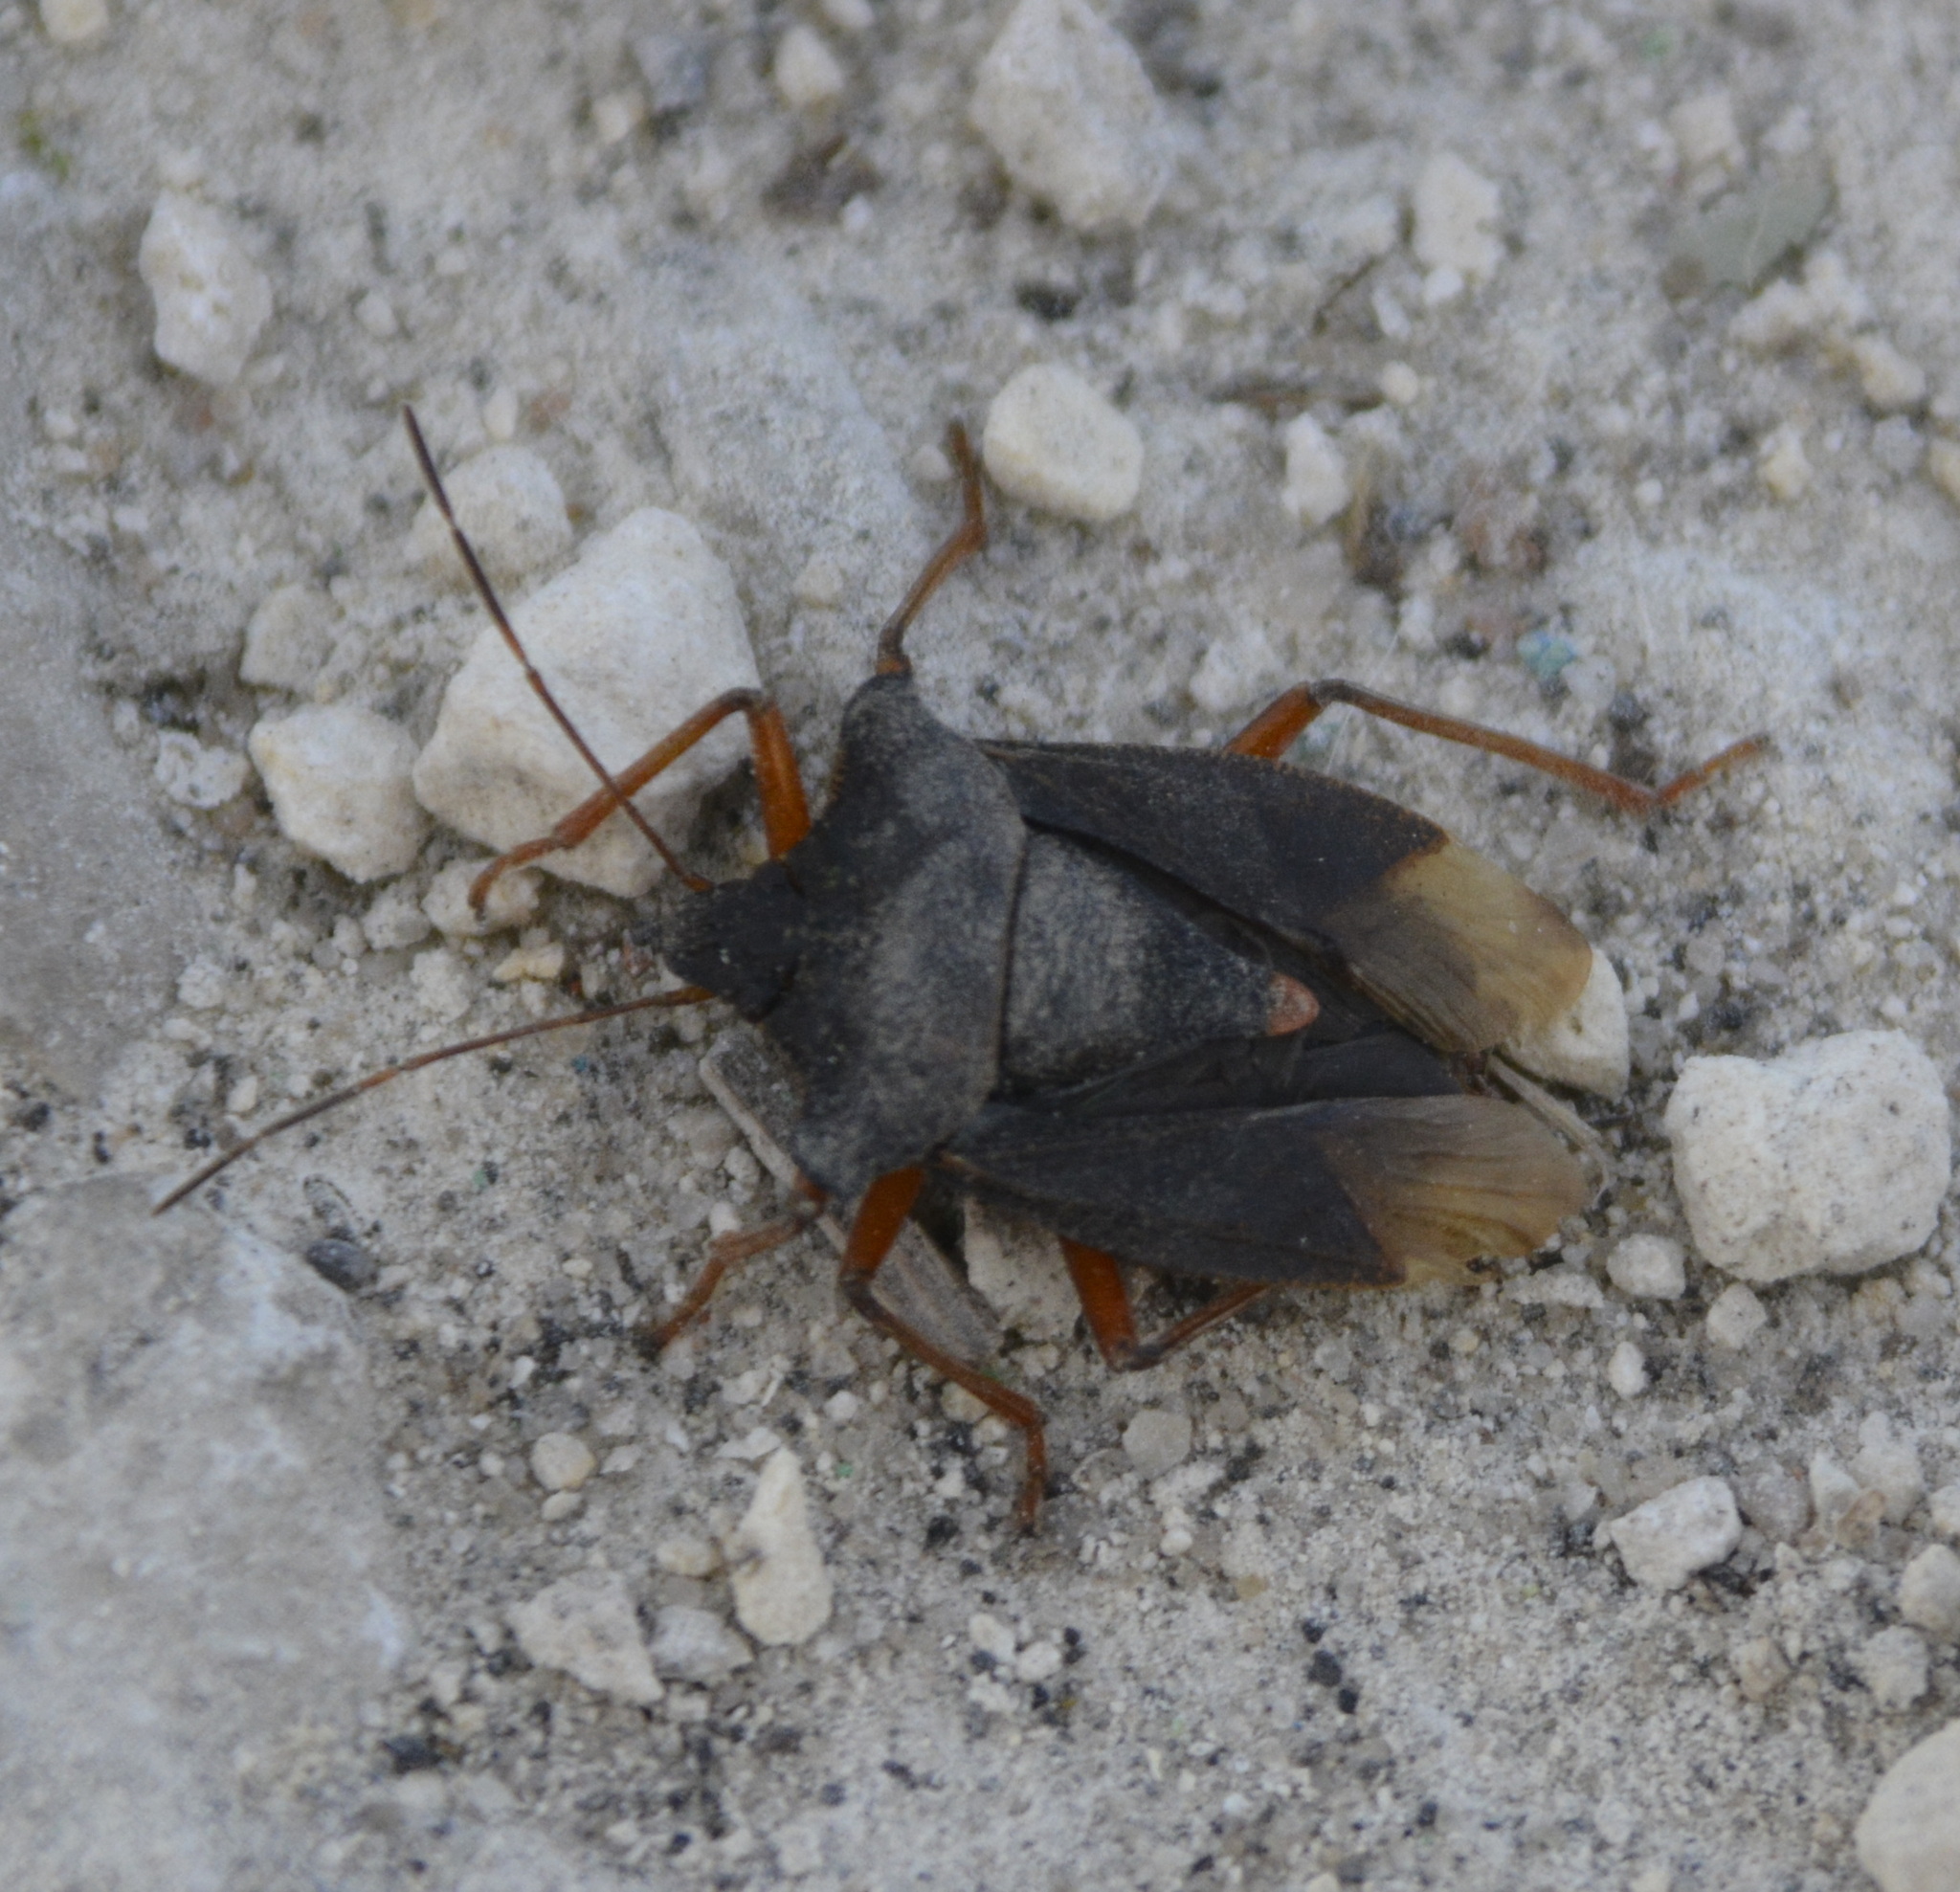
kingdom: Animalia
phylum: Arthropoda
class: Insecta
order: Hemiptera
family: Pentatomidae
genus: Pentatoma
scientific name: Pentatoma rufipes
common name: Forest bug
